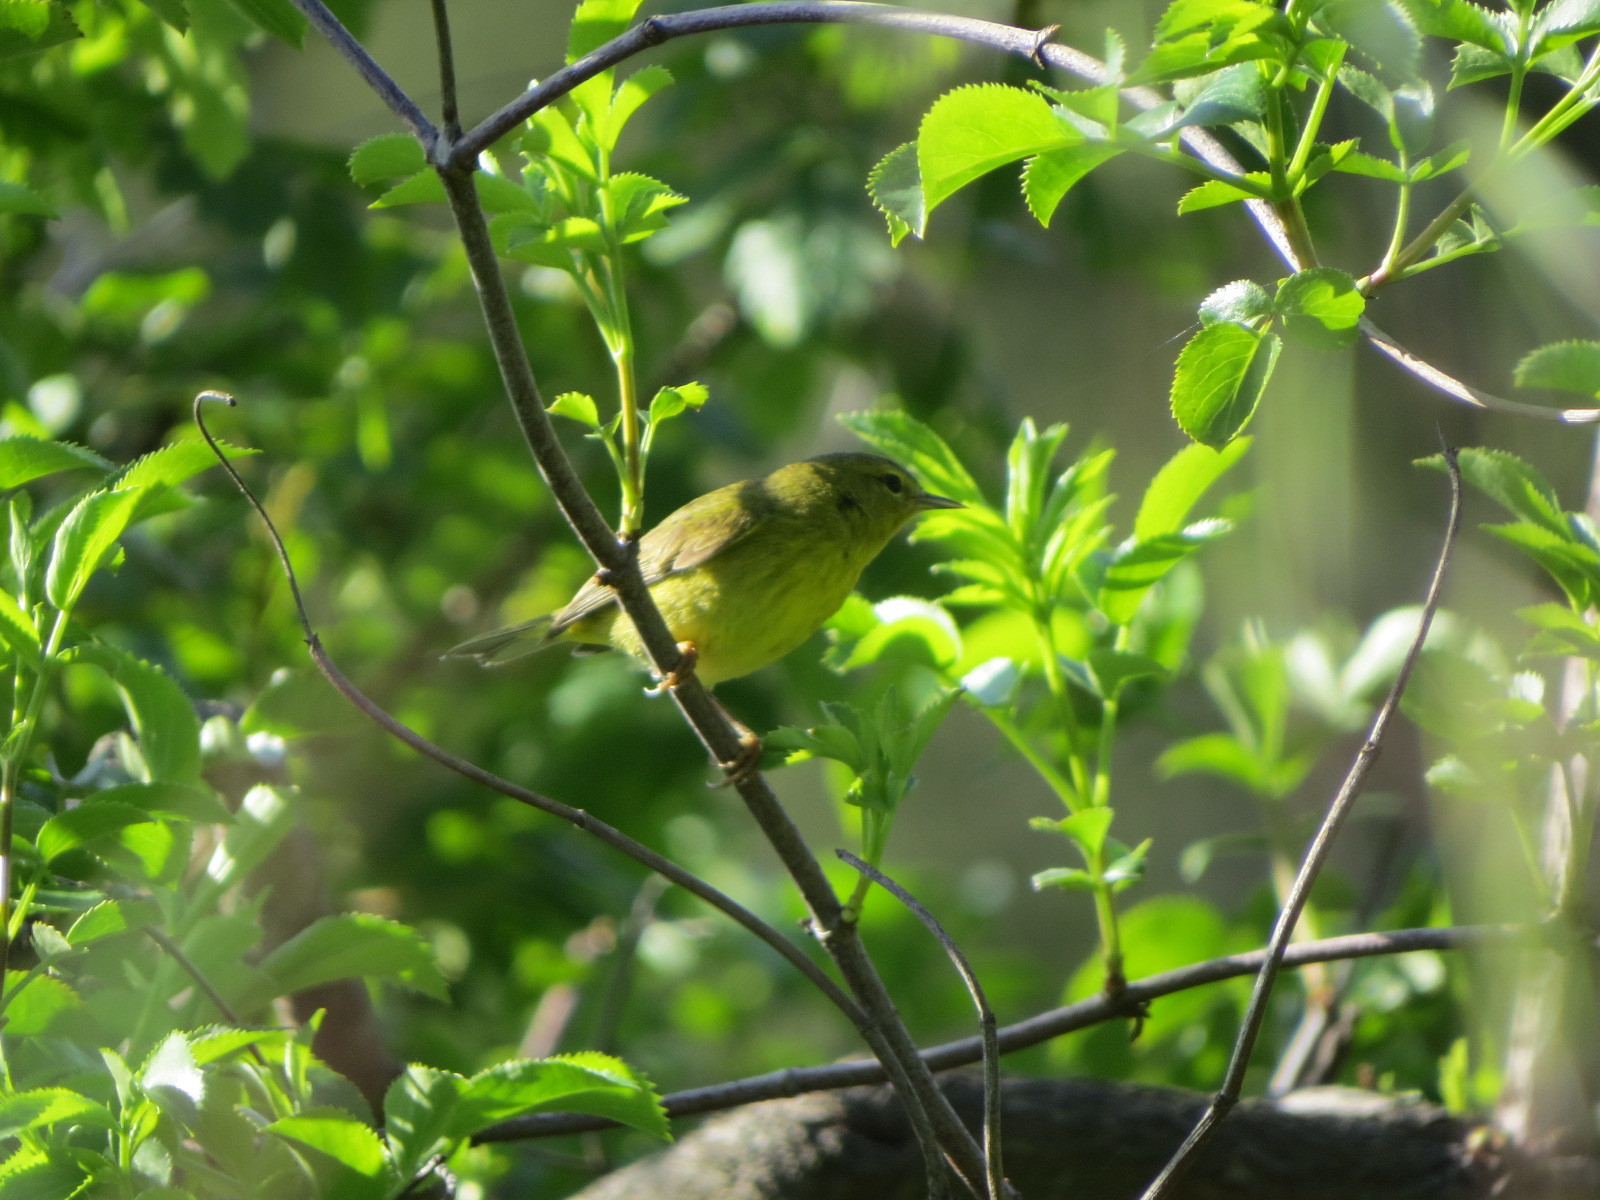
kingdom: Animalia
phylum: Chordata
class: Aves
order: Passeriformes
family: Parulidae
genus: Leiothlypis
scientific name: Leiothlypis celata
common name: Orange-crowned warbler
